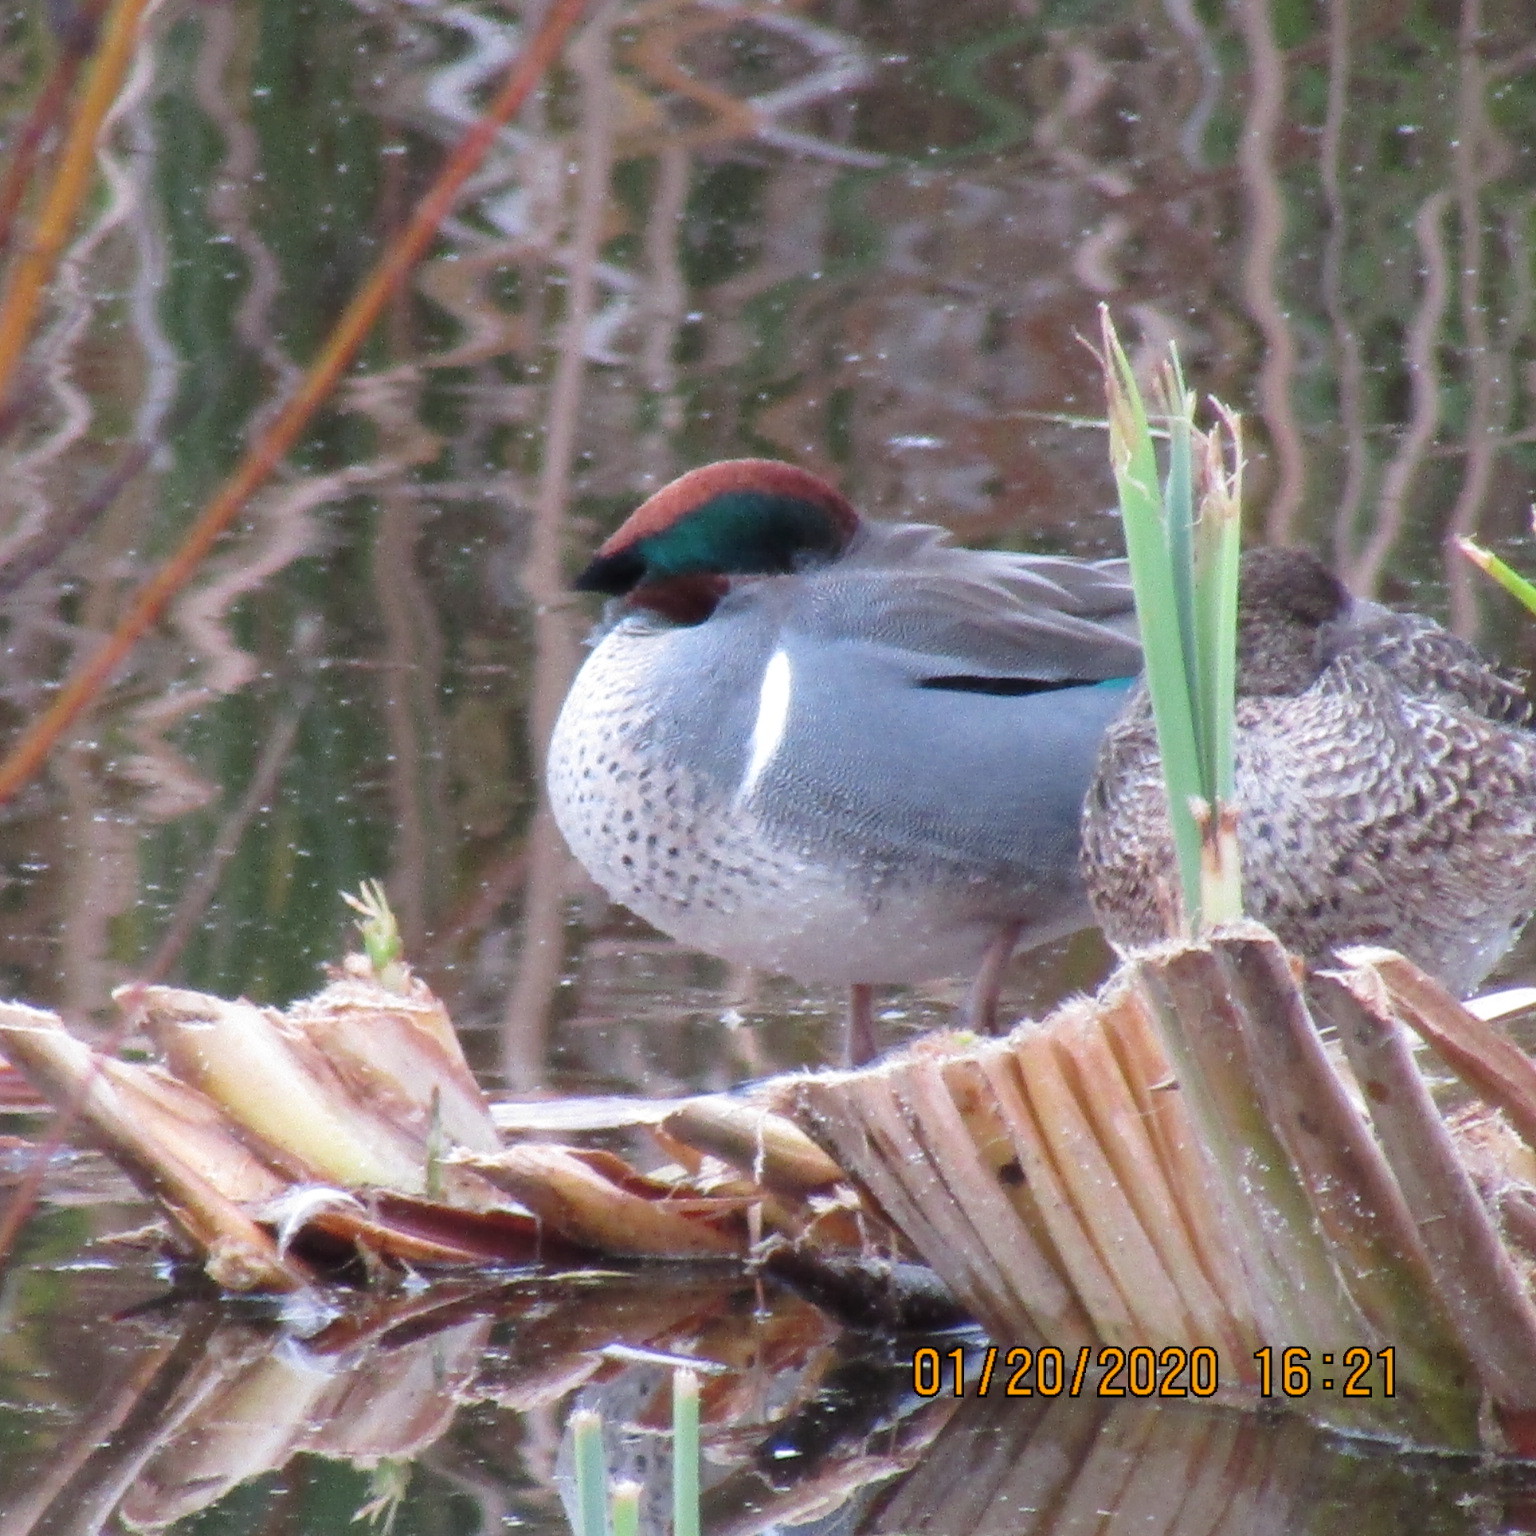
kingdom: Animalia
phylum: Chordata
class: Aves
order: Anseriformes
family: Anatidae
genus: Anas
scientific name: Anas crecca
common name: Eurasian teal
